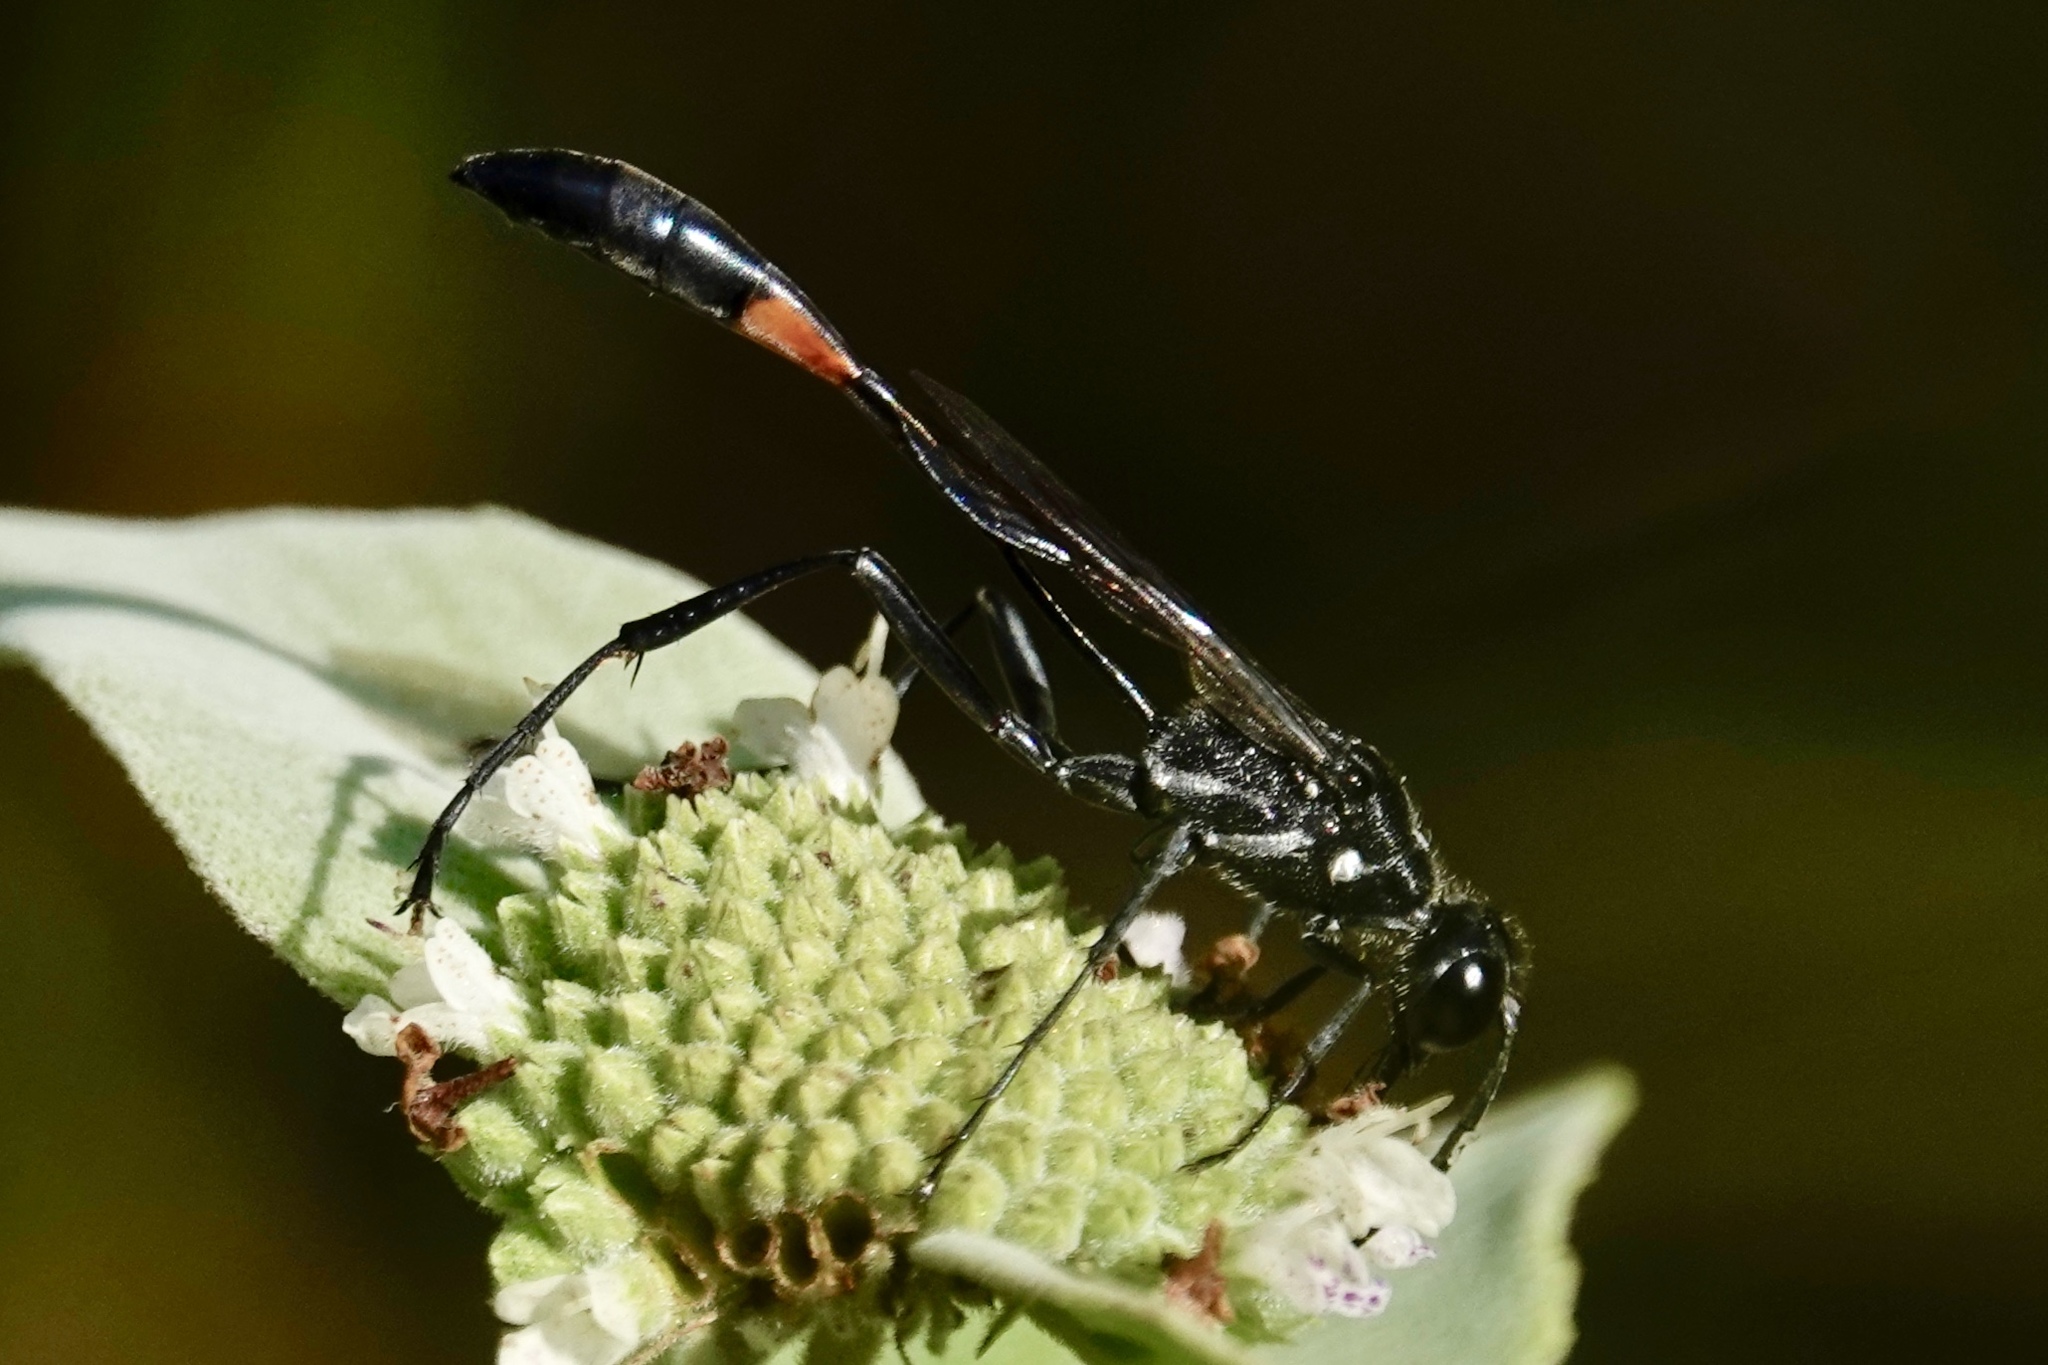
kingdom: Animalia
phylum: Arthropoda
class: Insecta
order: Hymenoptera
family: Sphecidae
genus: Ammophila
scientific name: Ammophila procera
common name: Common thread-waisted wasp
